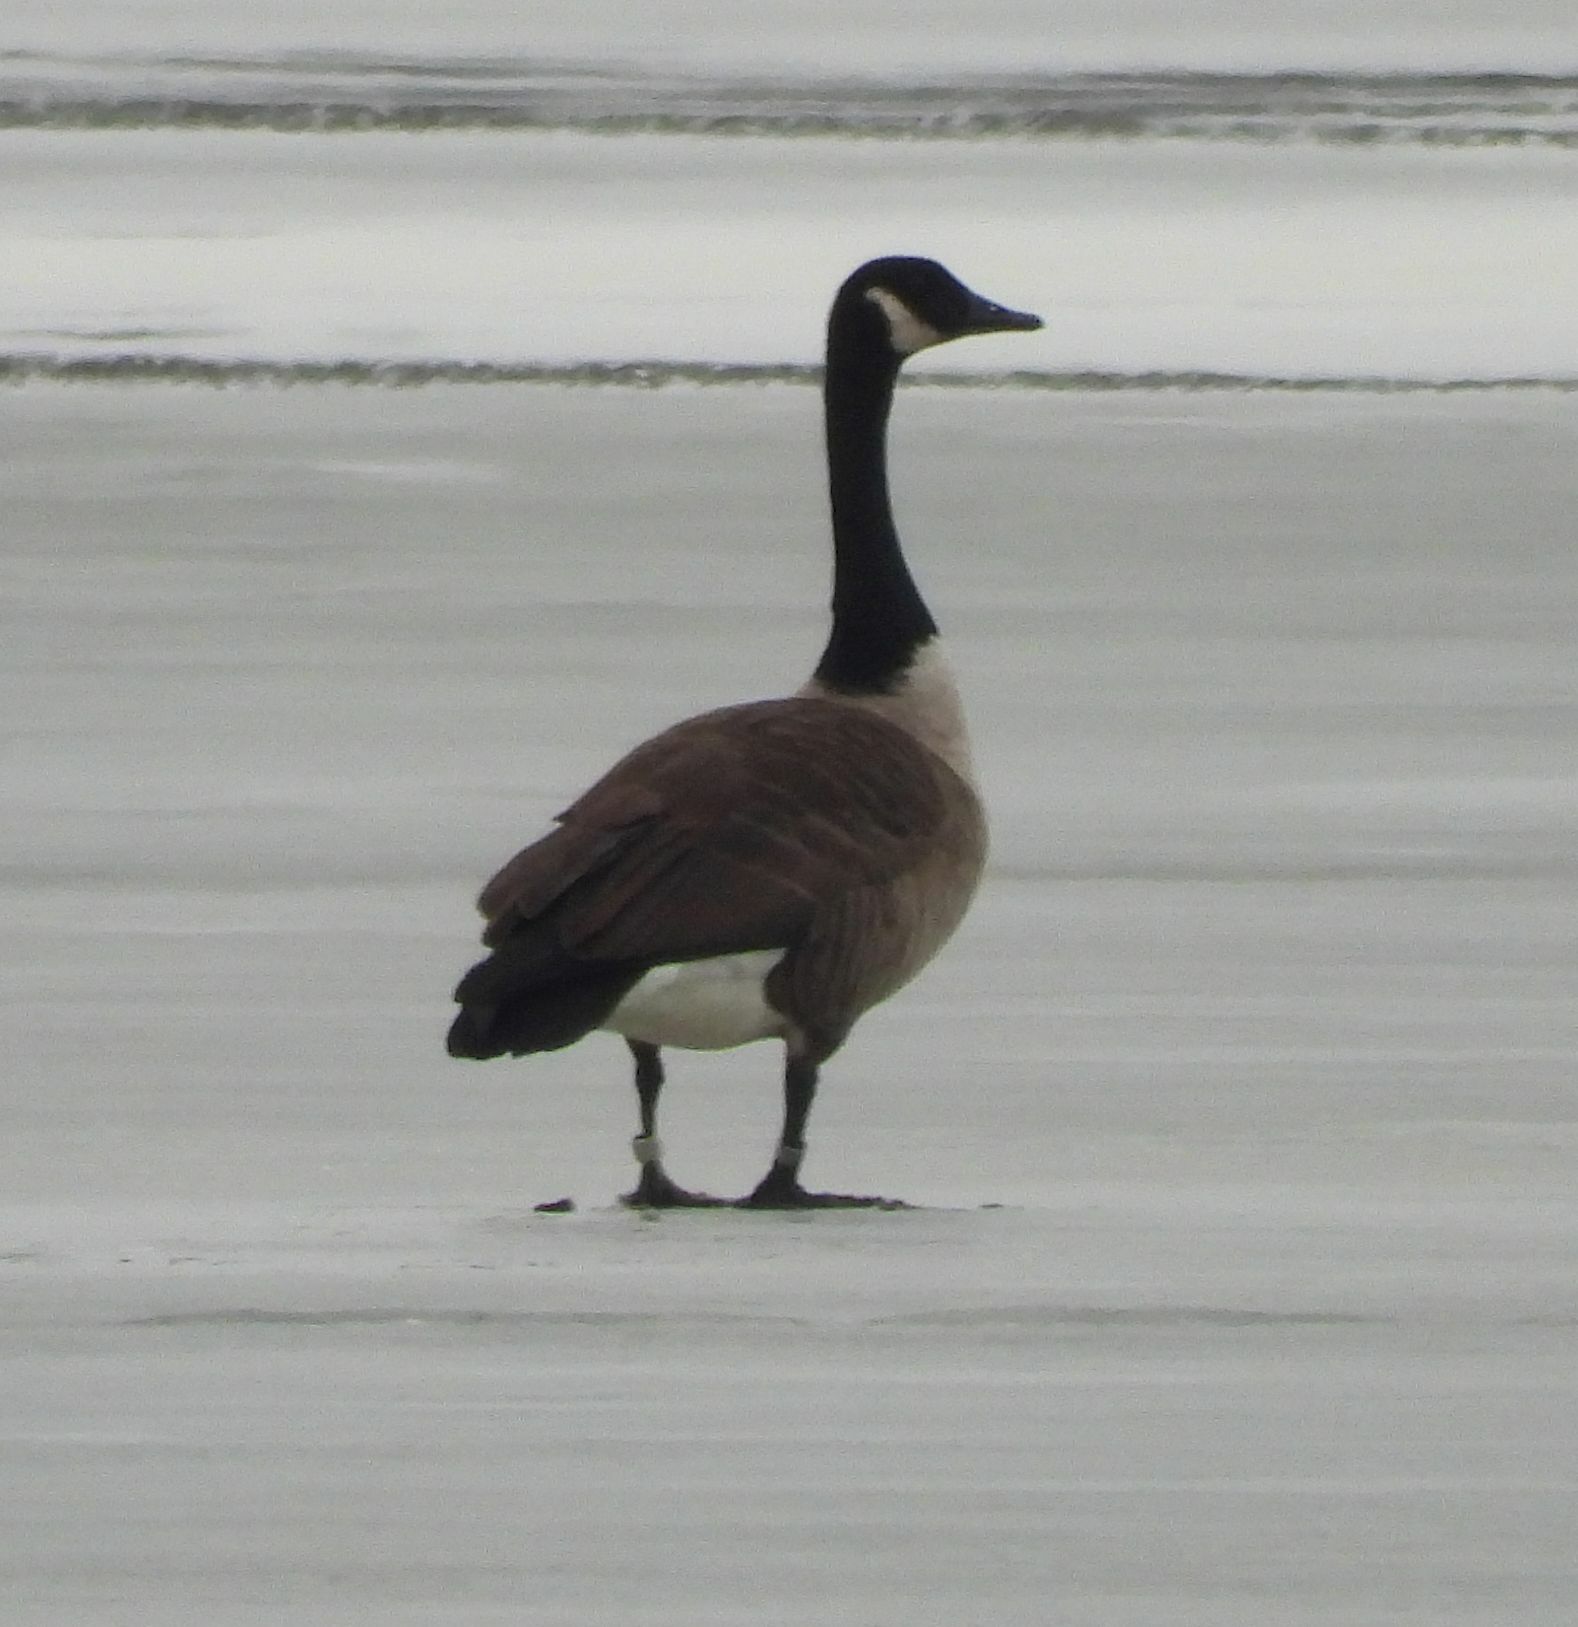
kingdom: Animalia
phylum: Chordata
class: Aves
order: Anseriformes
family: Anatidae
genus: Branta
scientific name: Branta canadensis
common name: Canada goose
